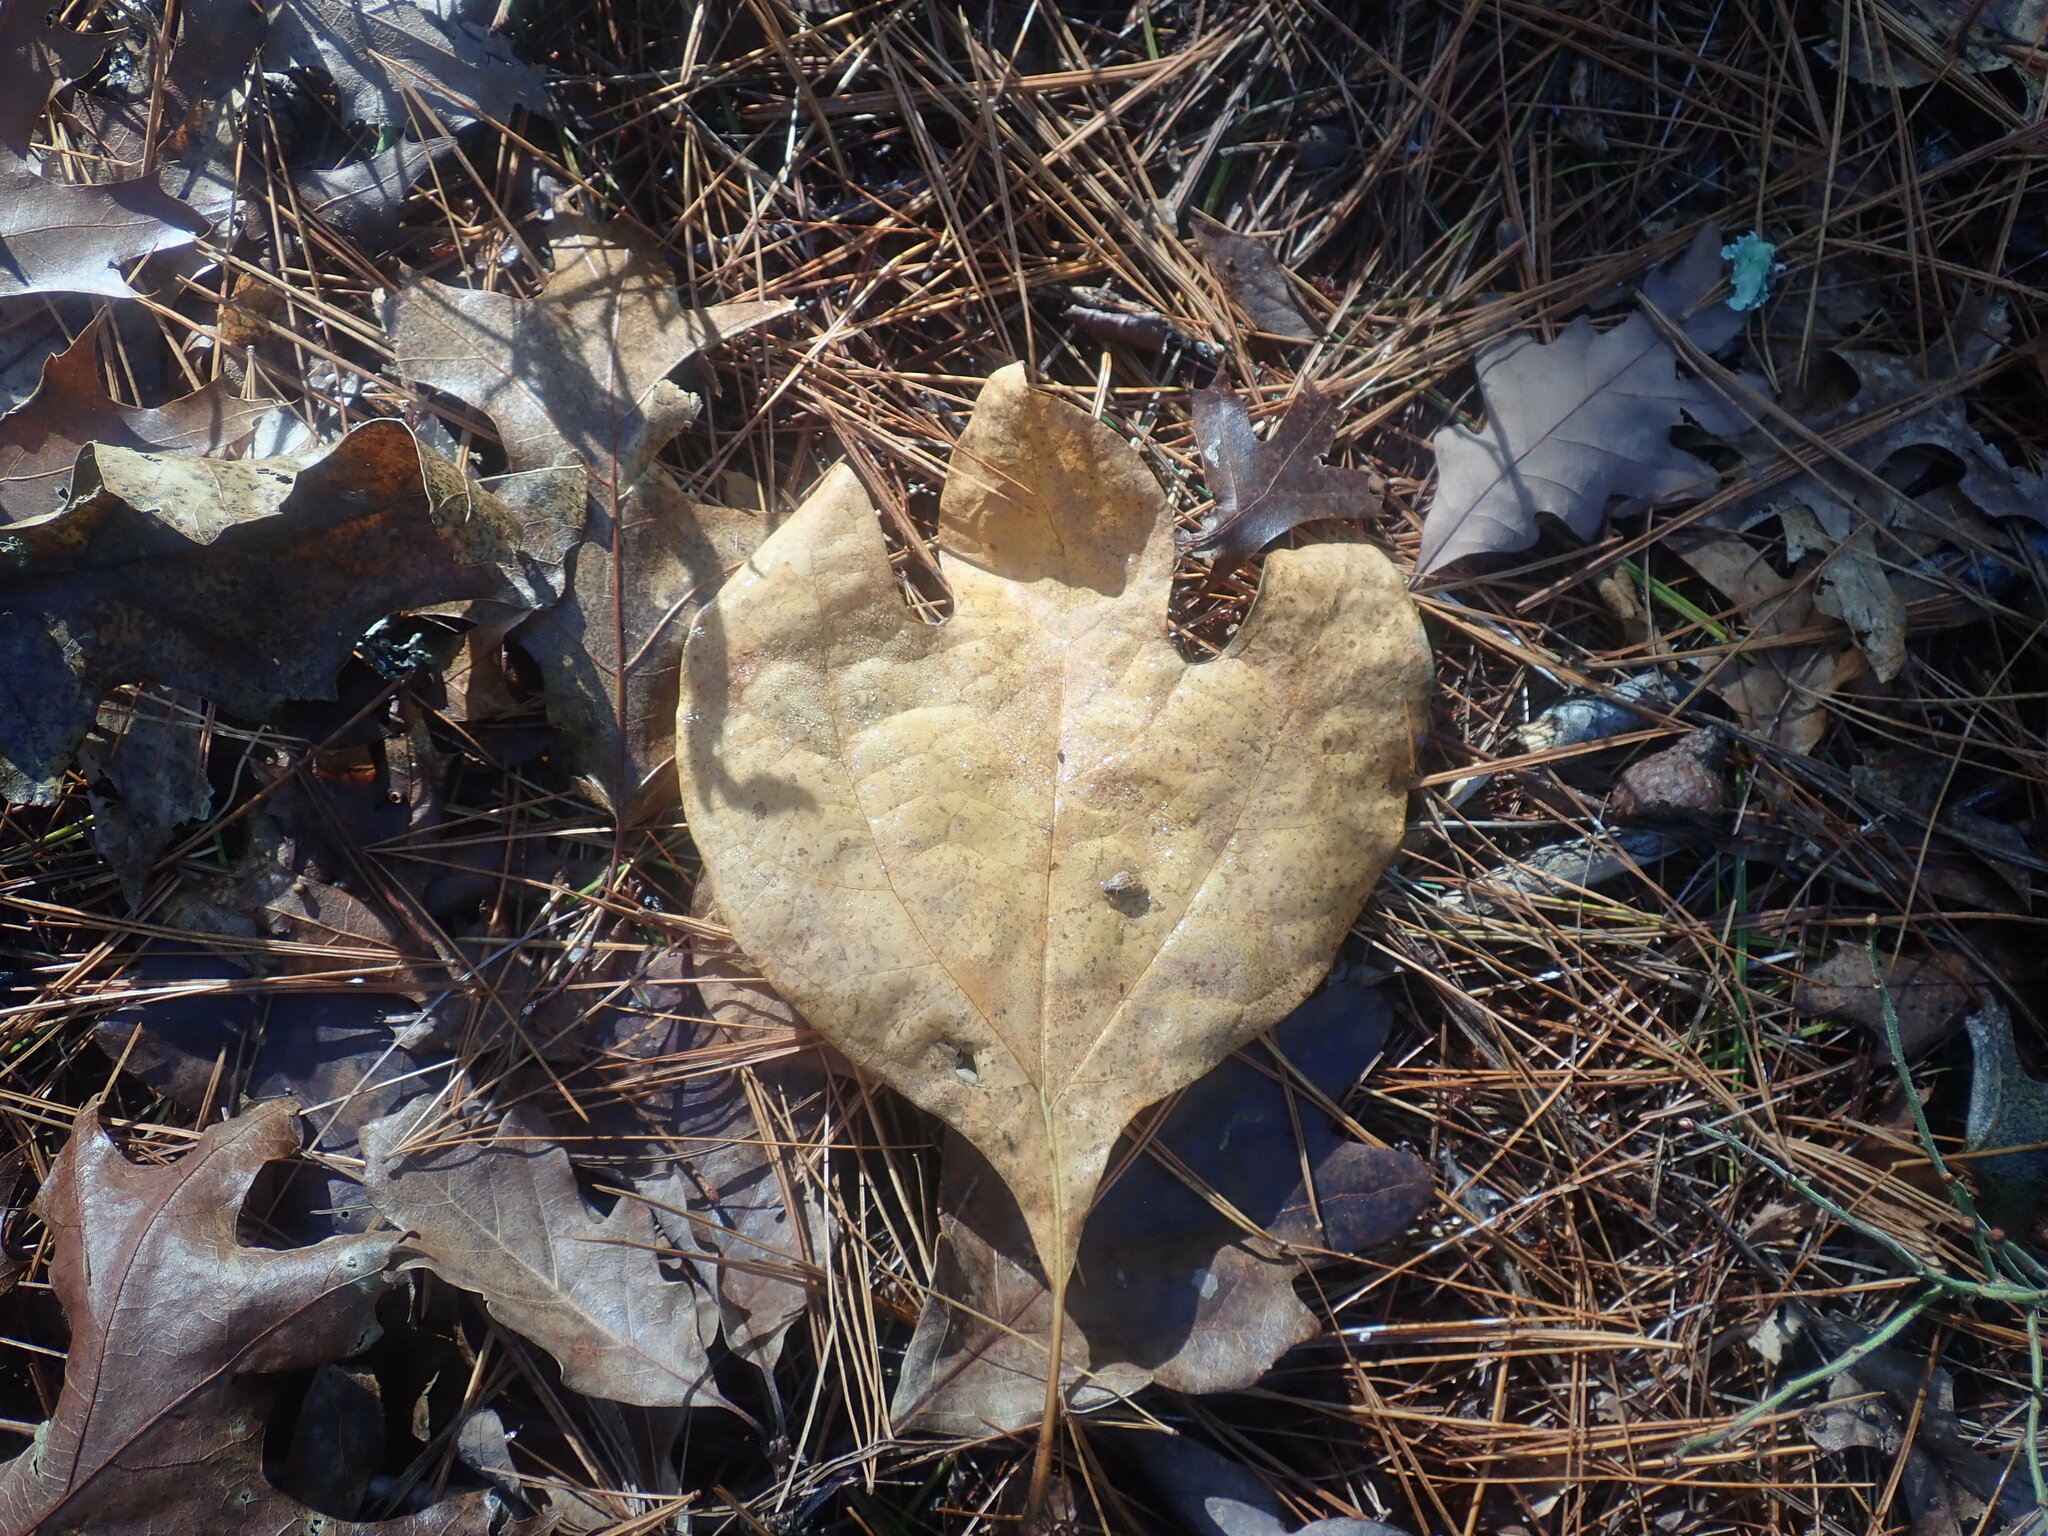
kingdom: Plantae
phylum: Tracheophyta
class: Magnoliopsida
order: Laurales
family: Lauraceae
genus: Sassafras
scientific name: Sassafras albidum
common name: Sassafras
